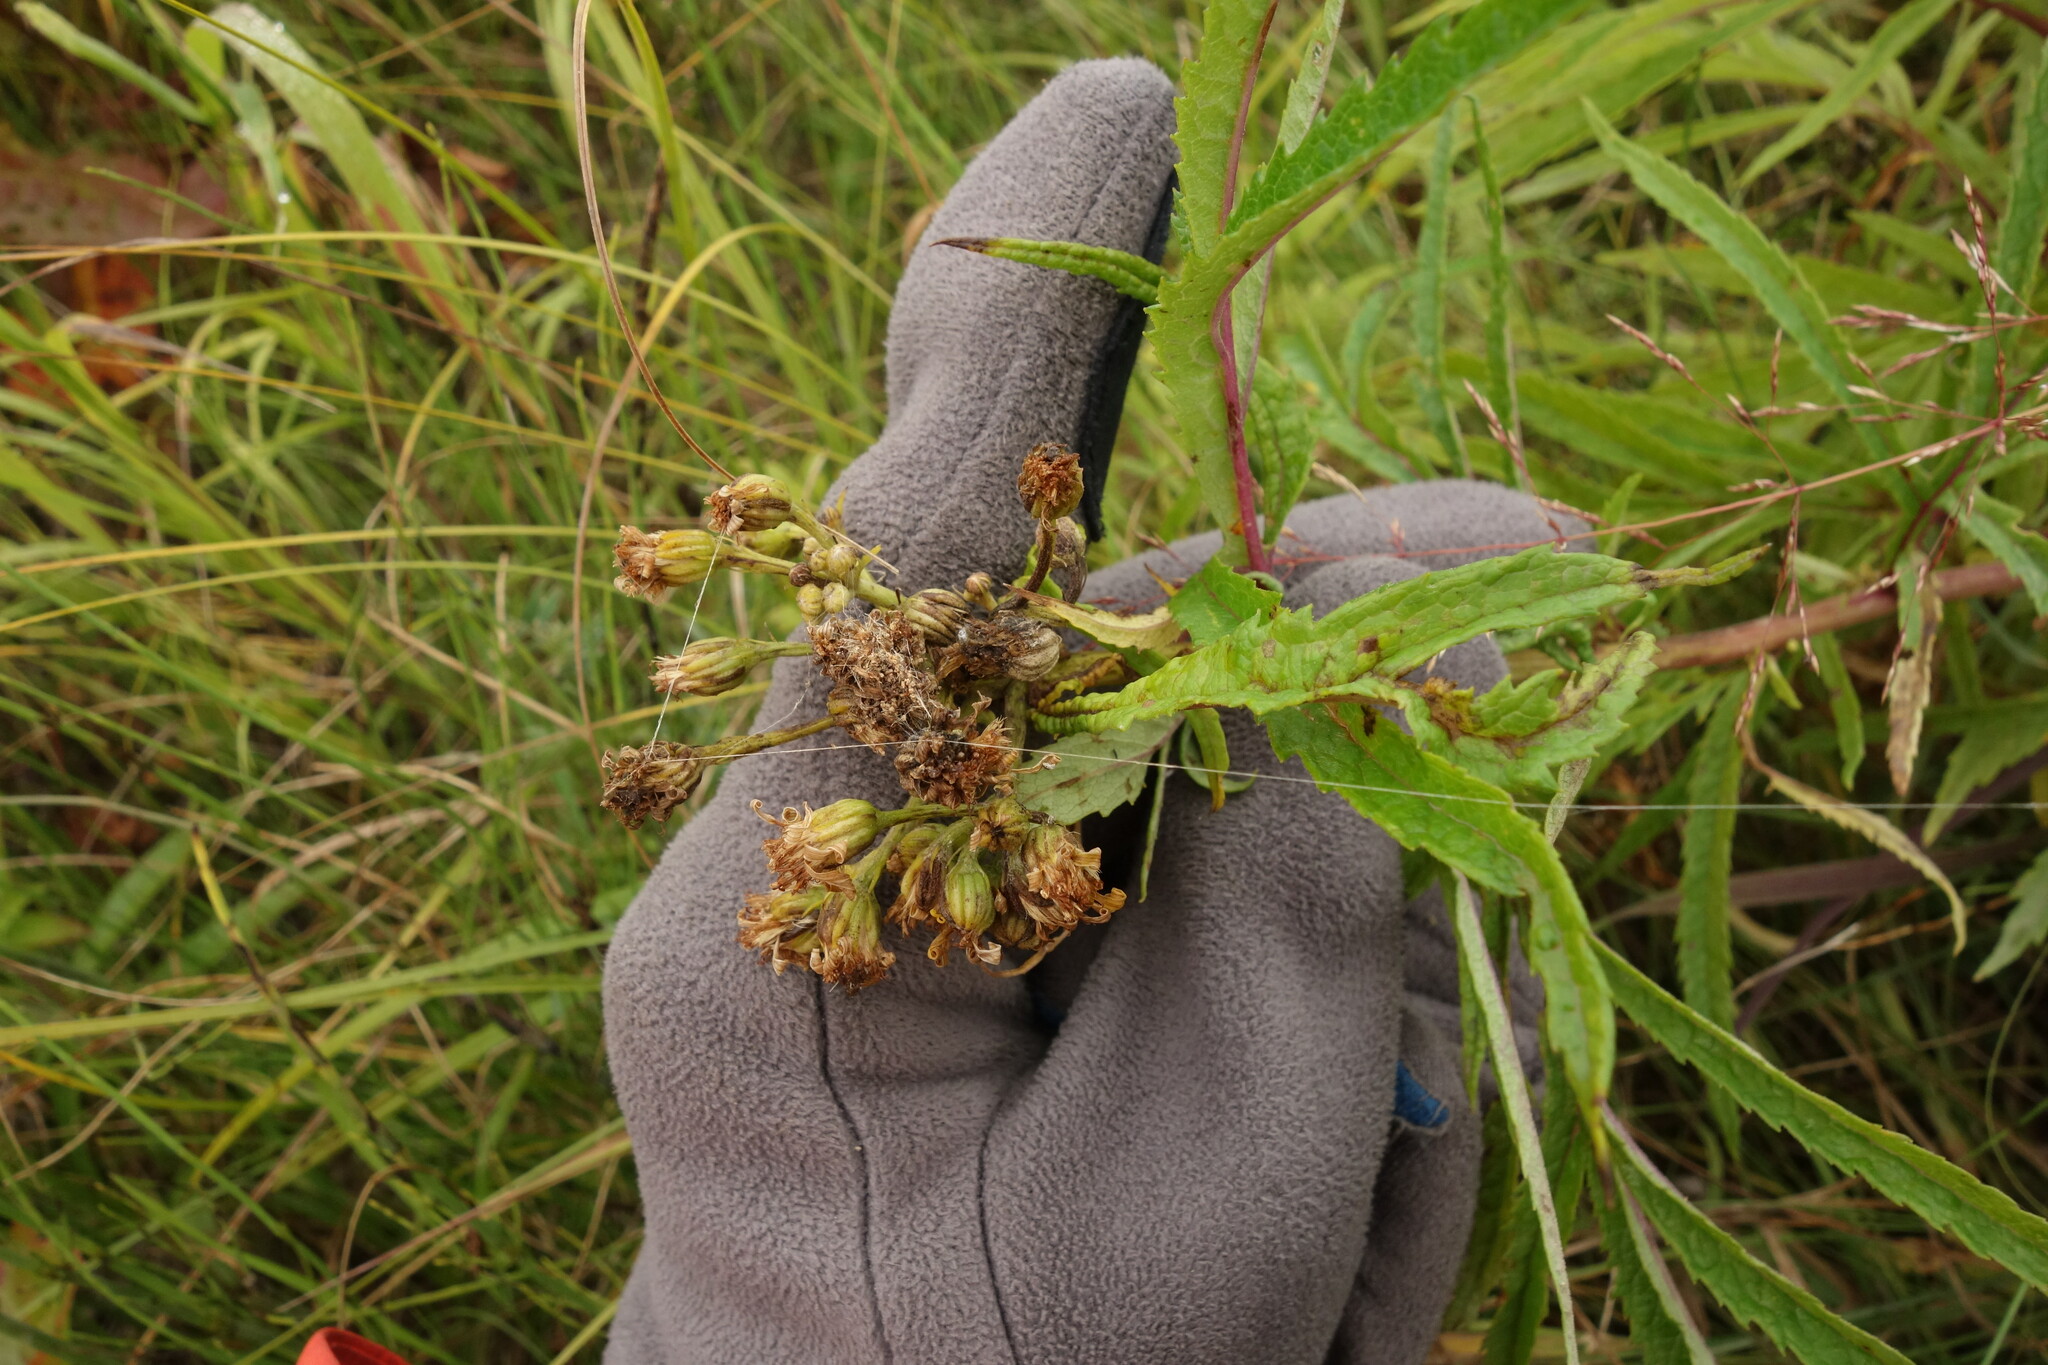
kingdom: Plantae
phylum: Tracheophyta
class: Magnoliopsida
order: Asterales
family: Asteraceae
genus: Jacobaea
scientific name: Jacobaea cannabifolia
